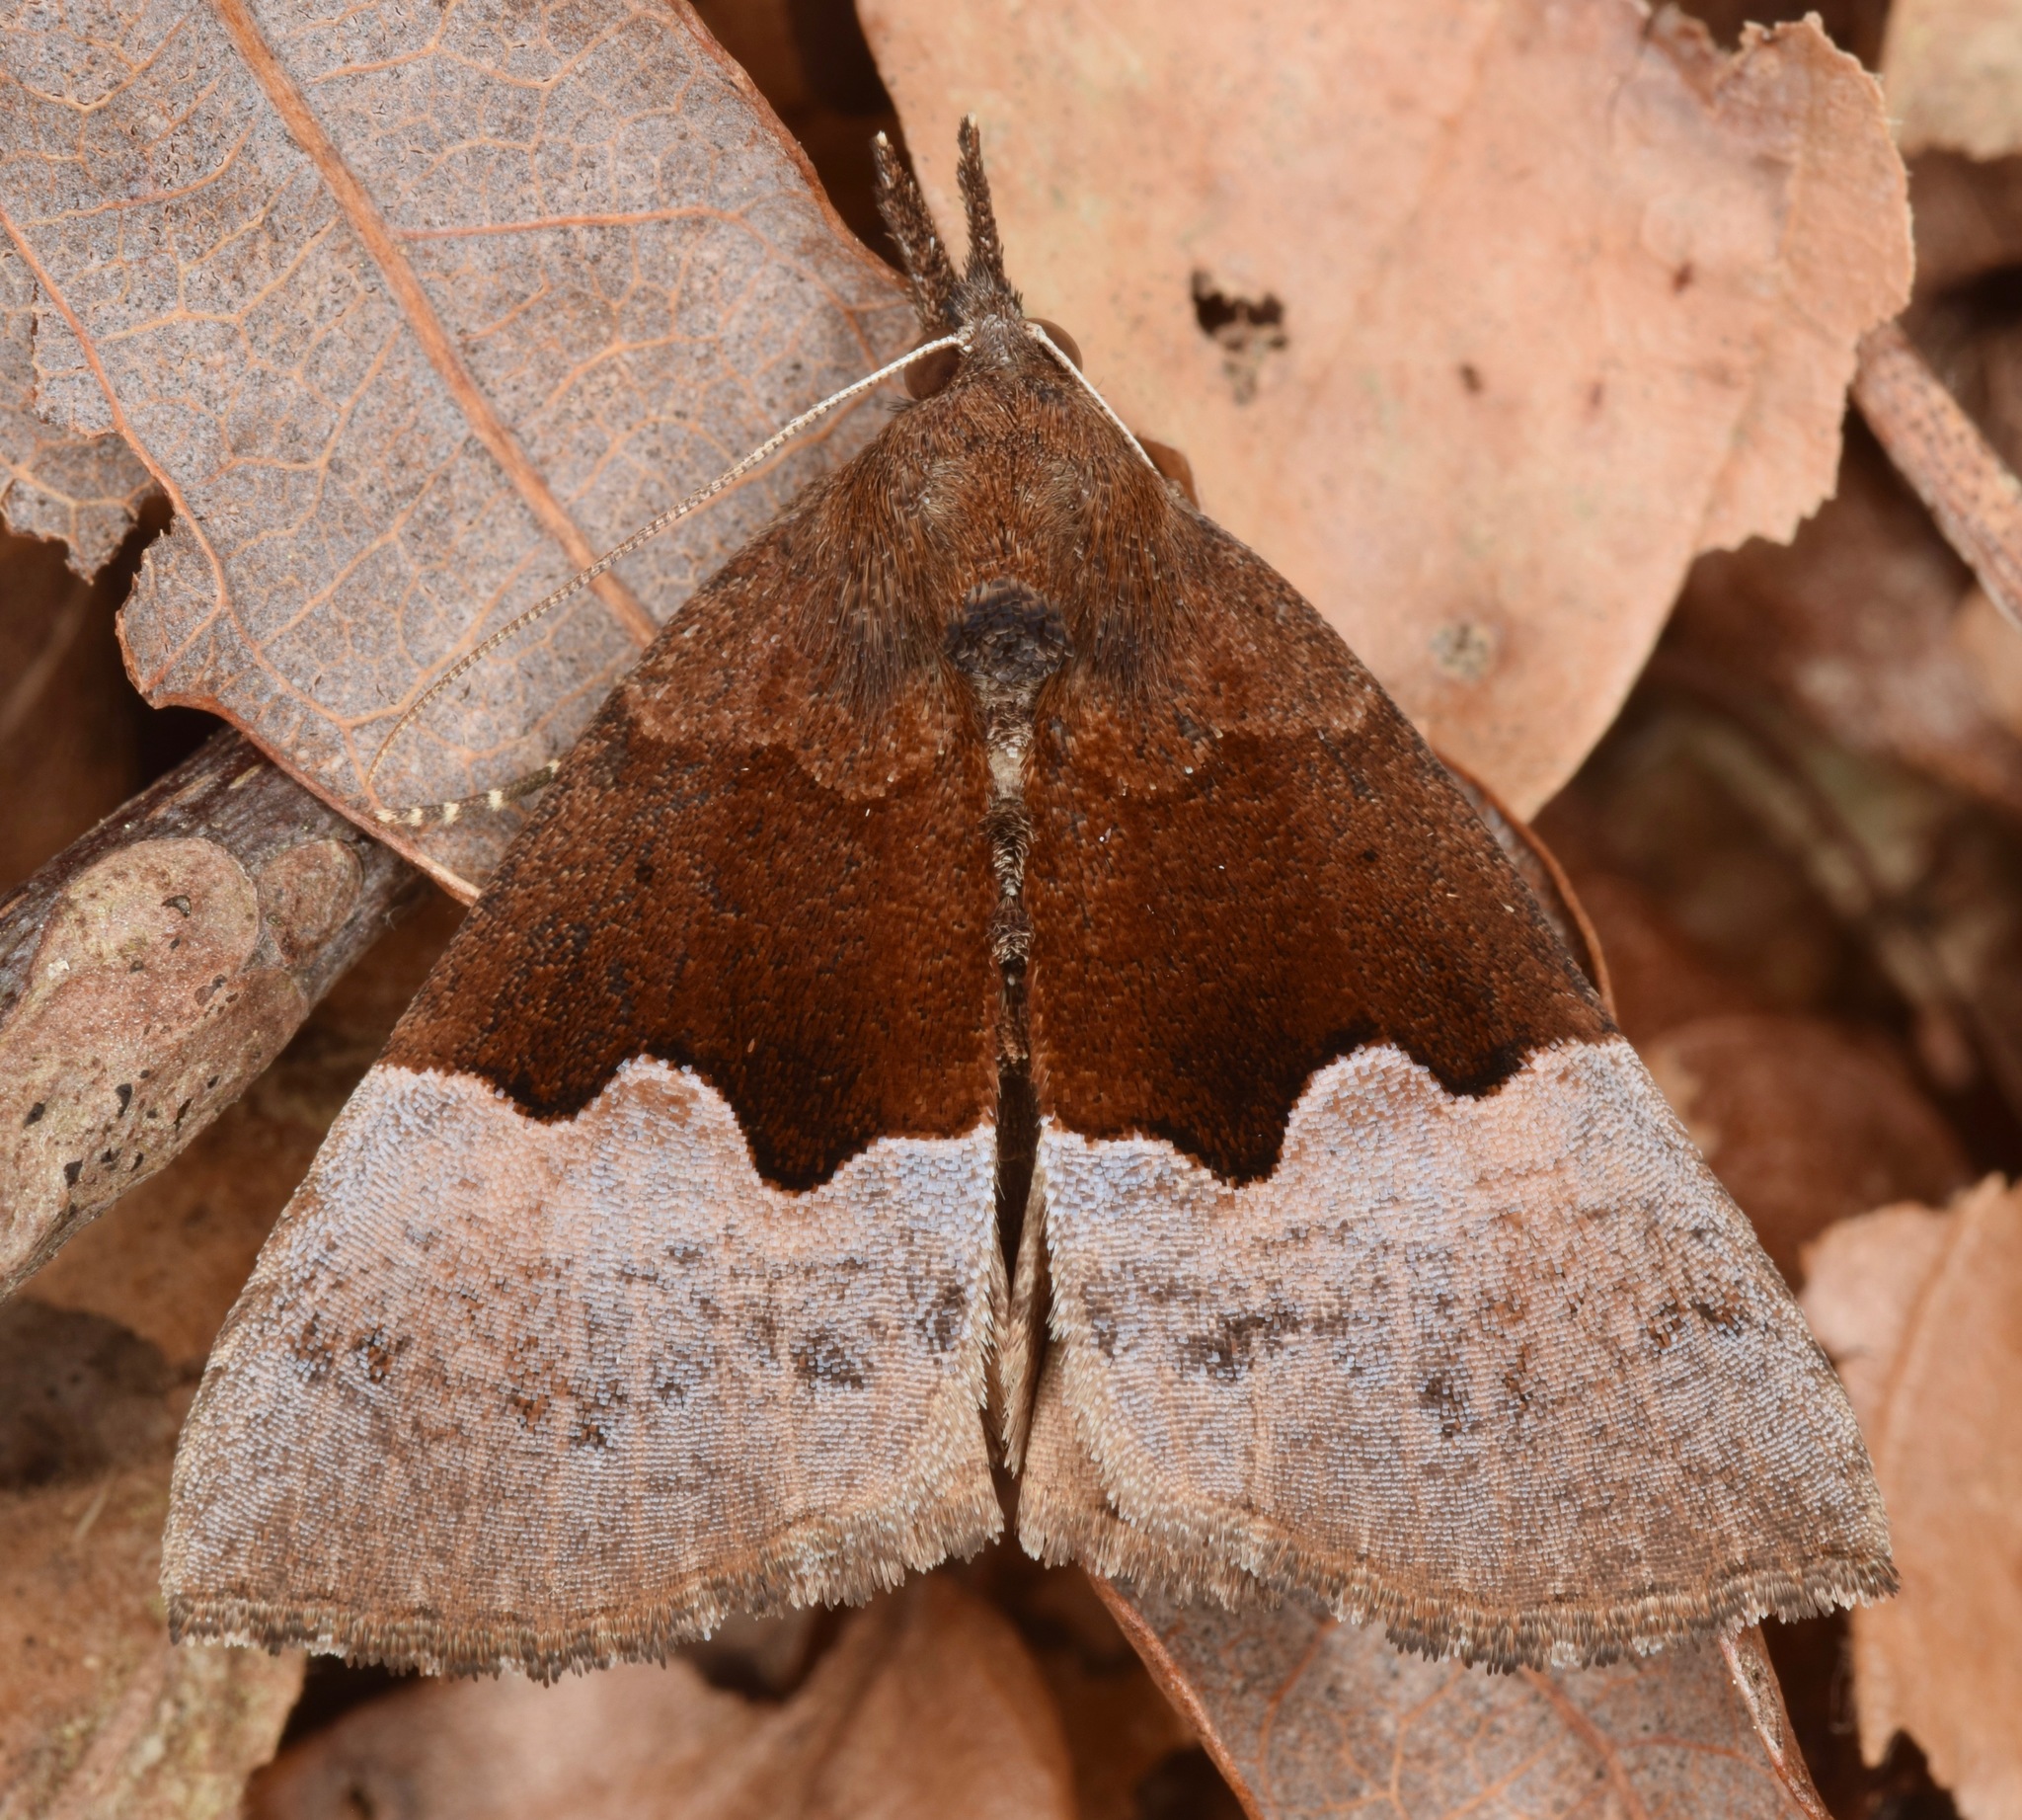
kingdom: Animalia
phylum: Arthropoda
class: Insecta
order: Lepidoptera
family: Erebidae
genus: Hypena
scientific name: Hypena appalachiensis
